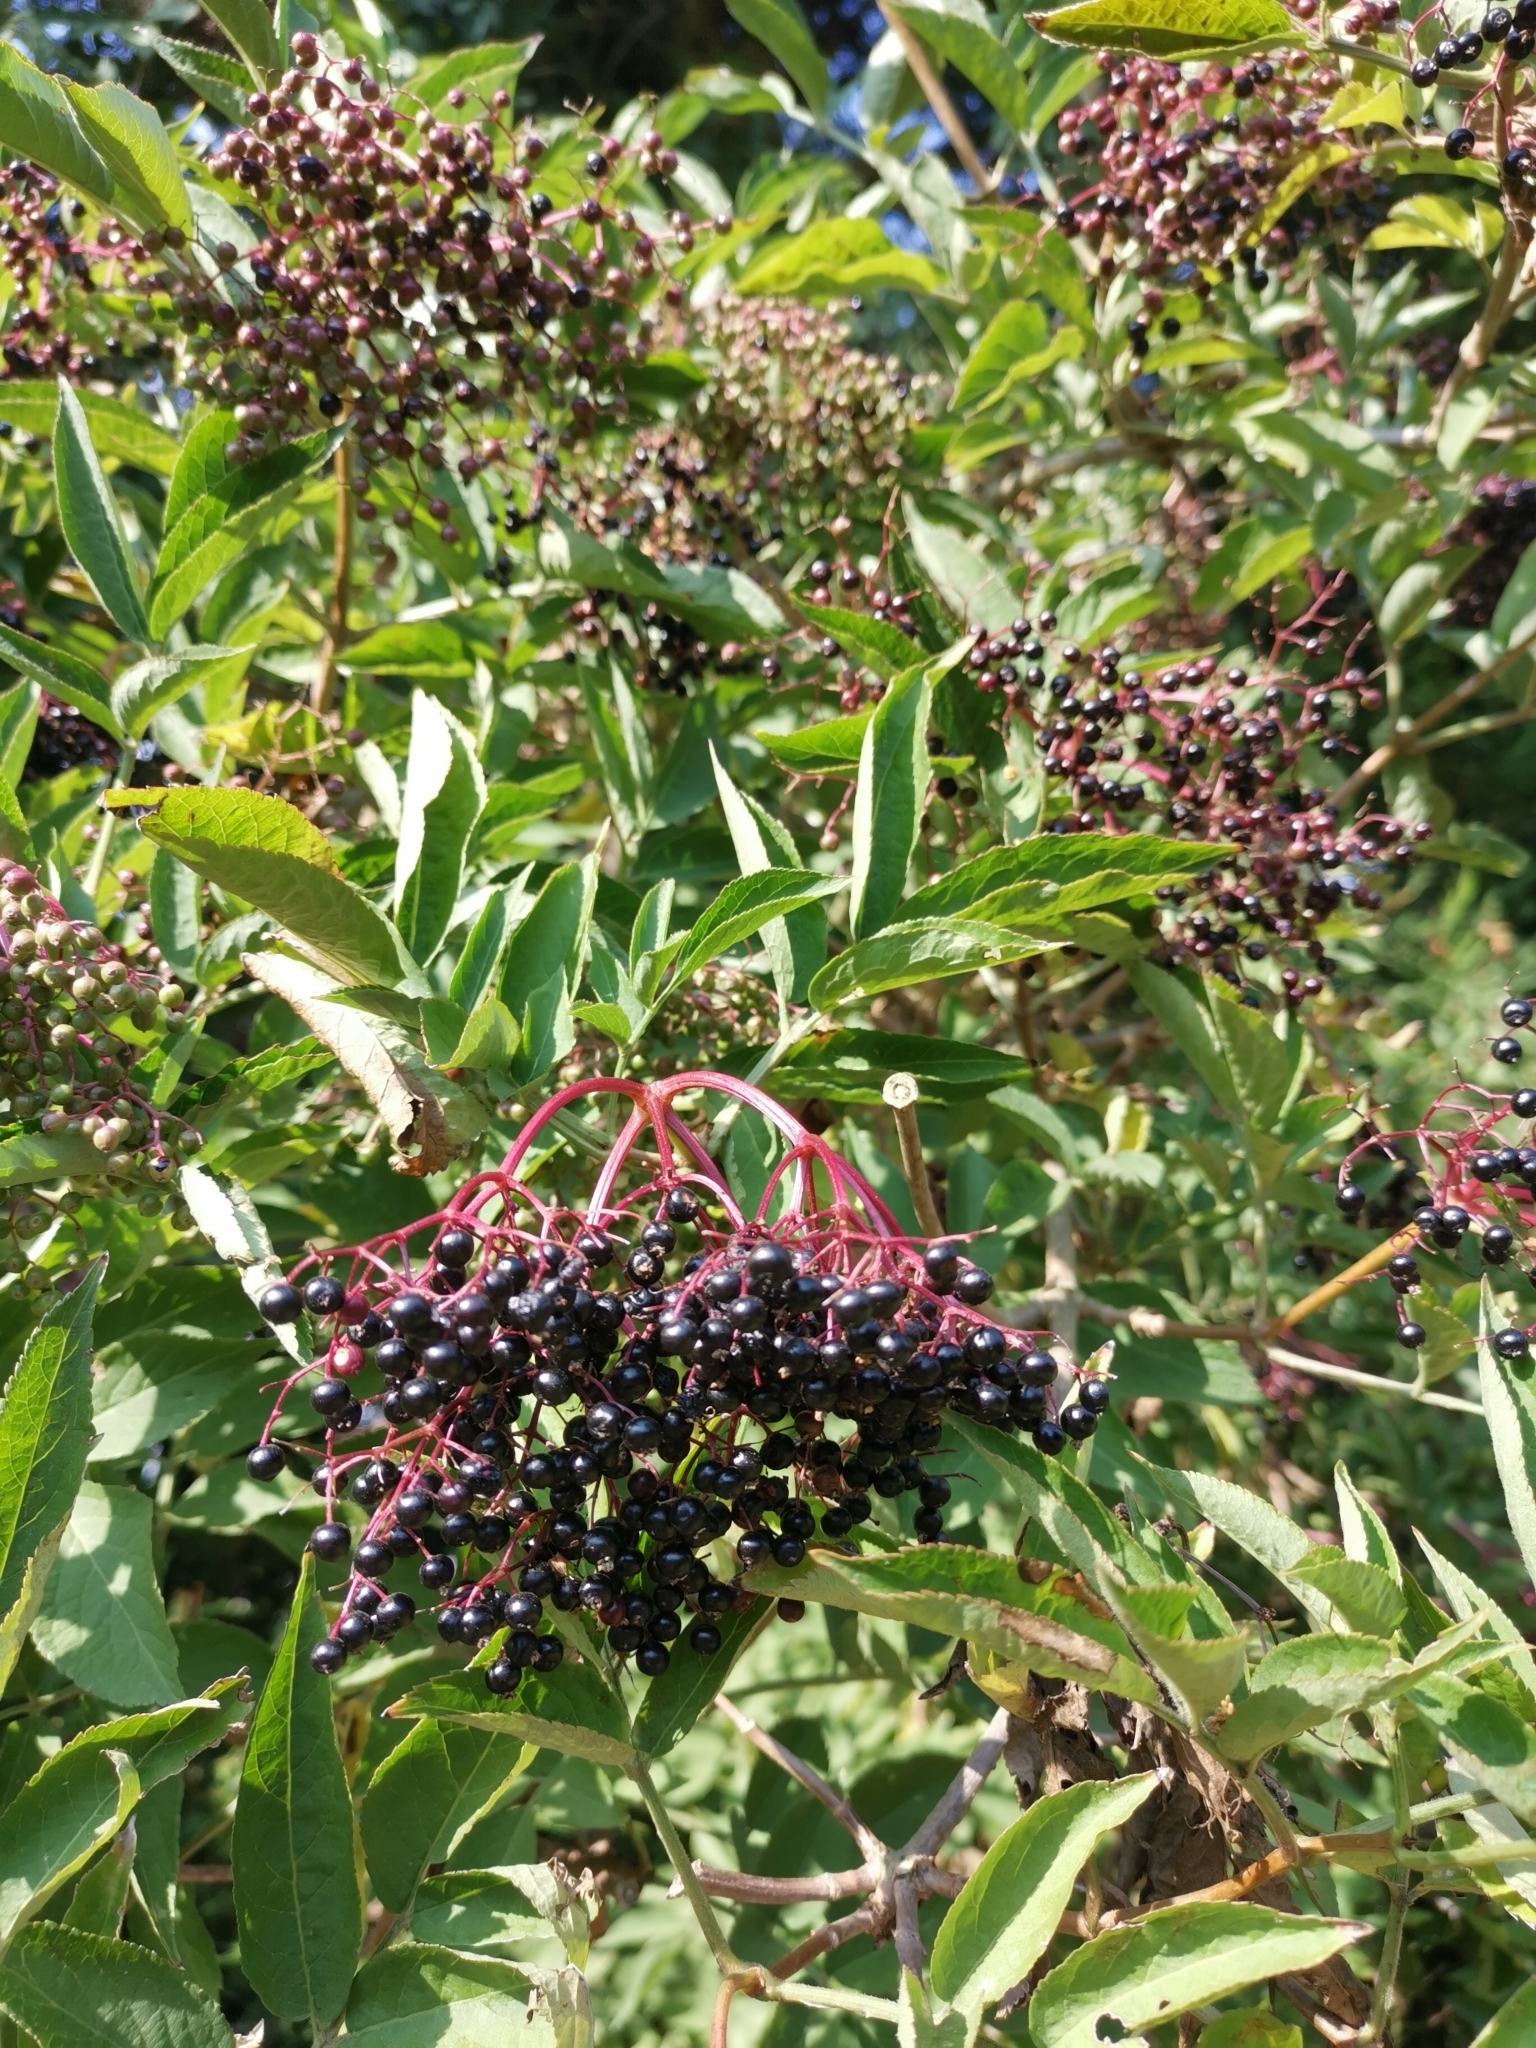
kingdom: Plantae
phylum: Tracheophyta
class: Magnoliopsida
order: Dipsacales
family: Viburnaceae
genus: Sambucus
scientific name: Sambucus nigra
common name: Elder
